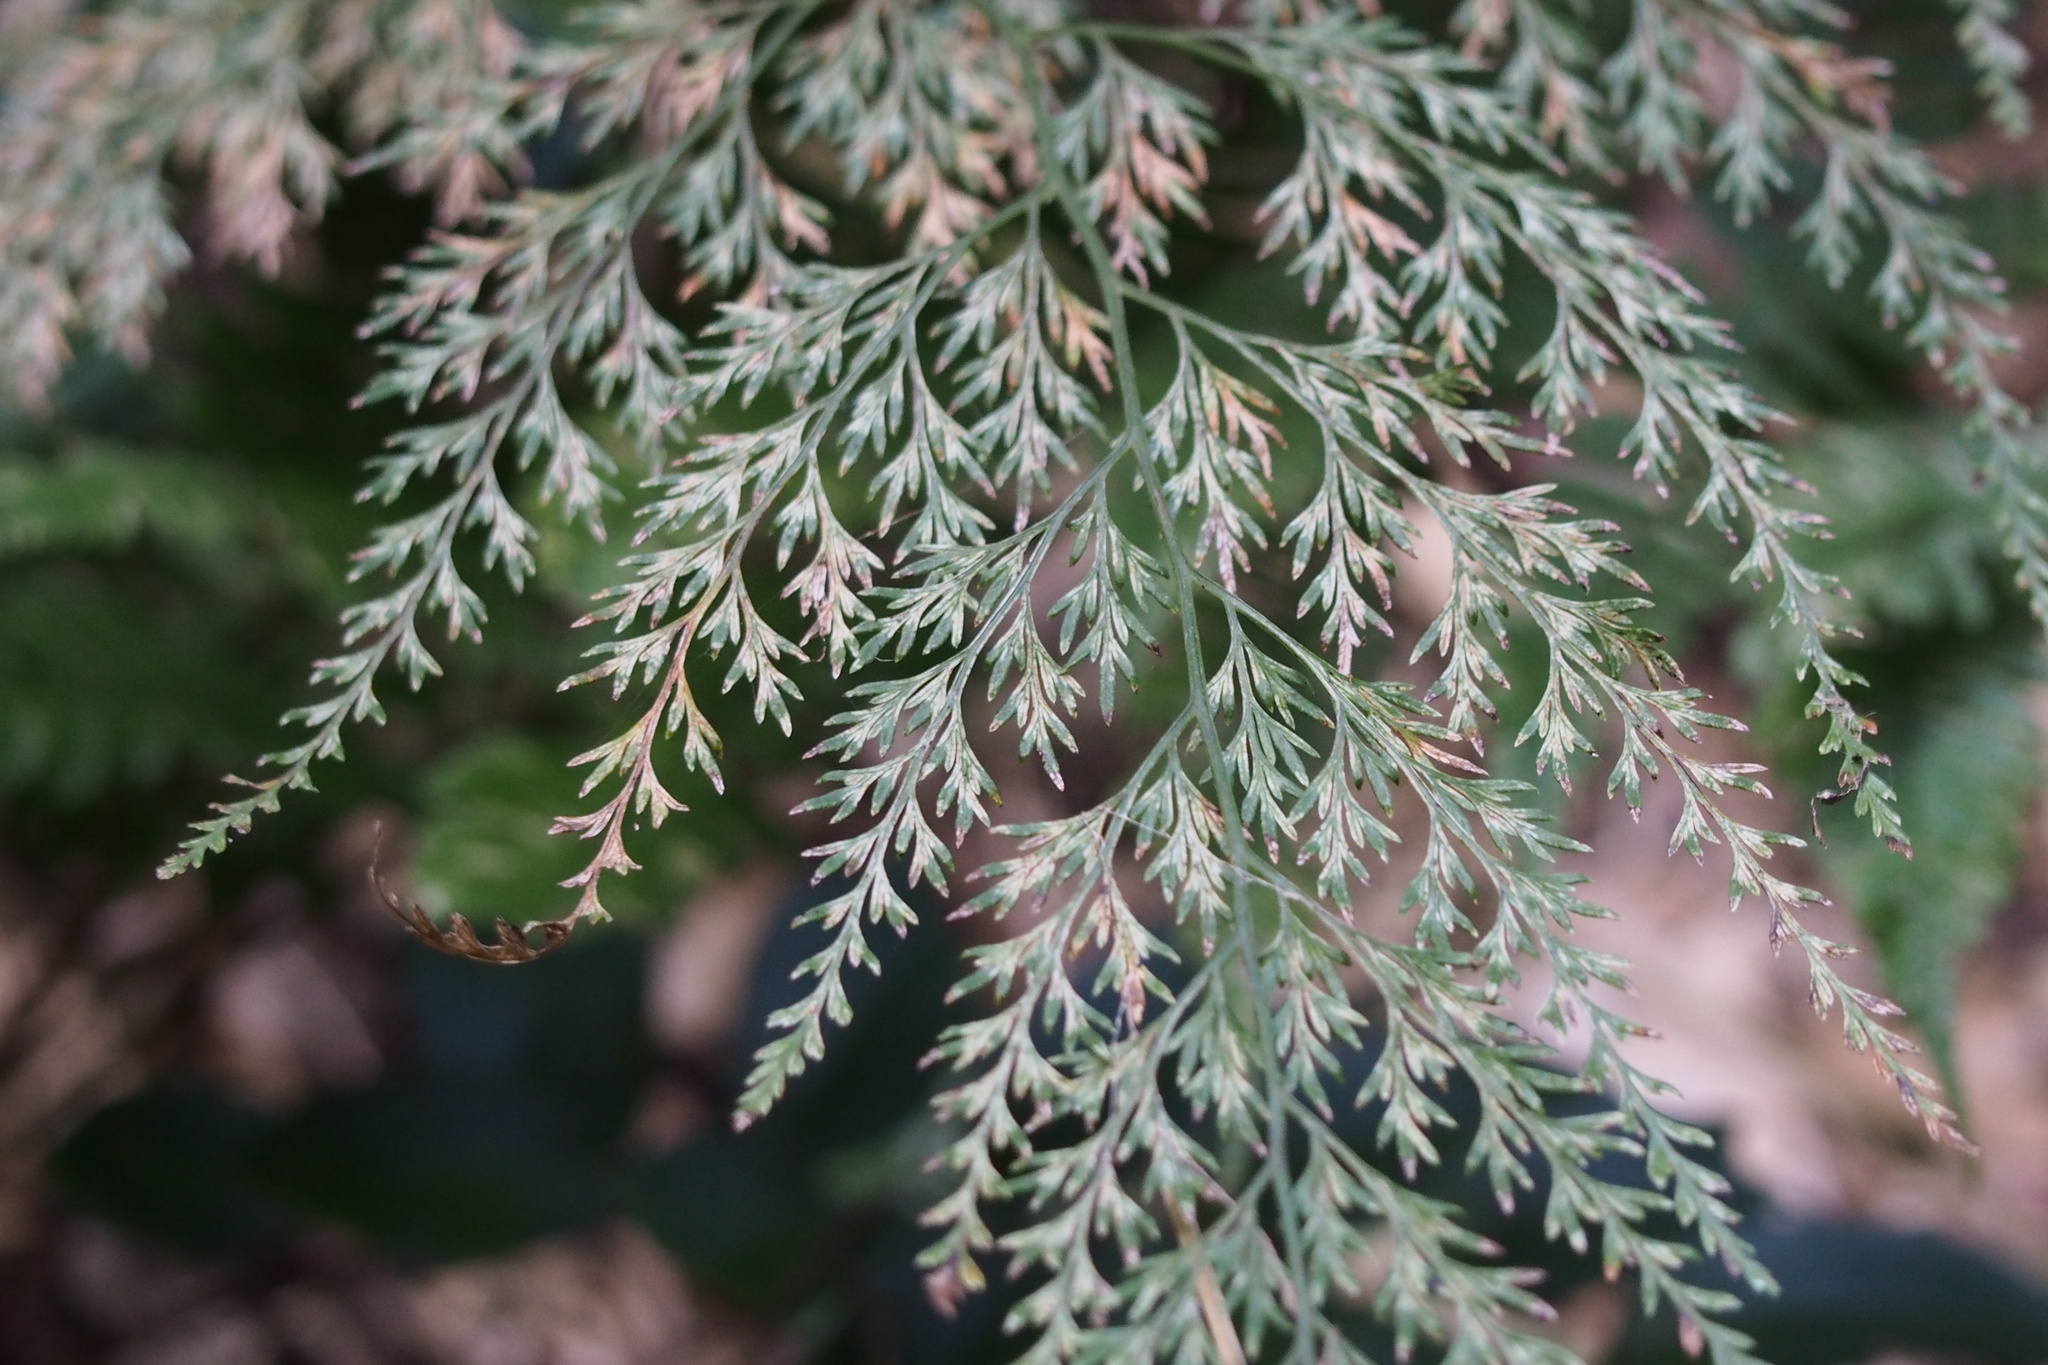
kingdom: Plantae
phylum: Tracheophyta
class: Polypodiopsida
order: Polypodiales
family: Pteridaceae
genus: Onychium
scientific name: Onychium japonicum
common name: Carrot fern
